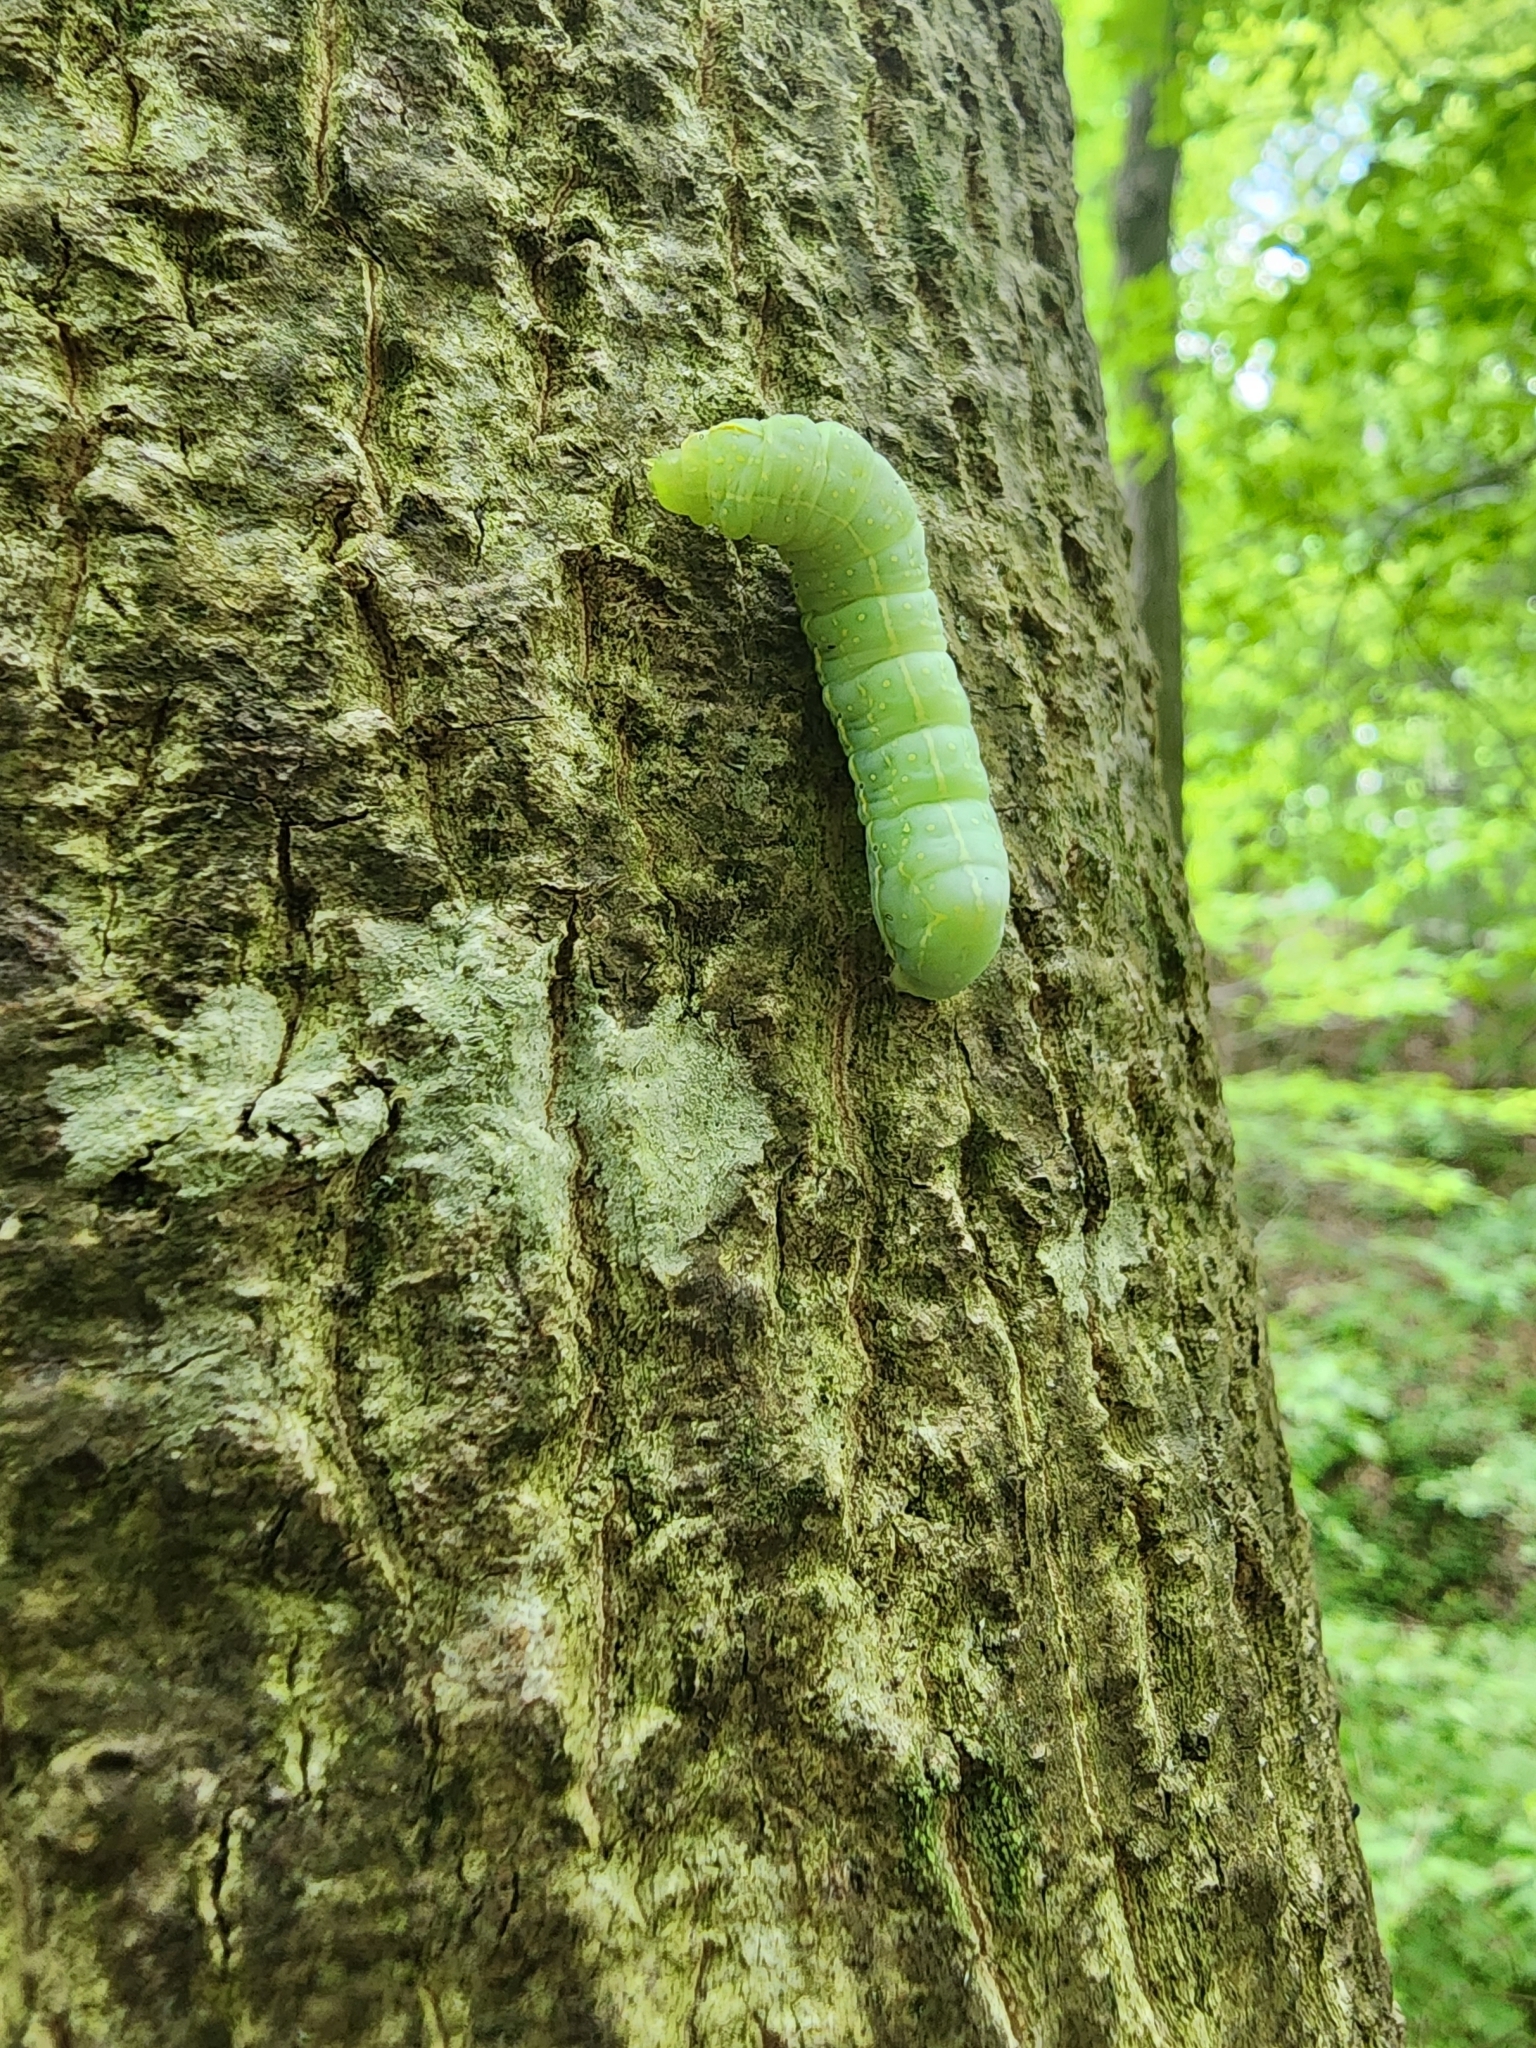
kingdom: Animalia
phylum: Arthropoda
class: Insecta
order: Lepidoptera
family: Noctuidae
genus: Amphipyra
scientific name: Amphipyra pyramidoides
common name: American copper underwing
